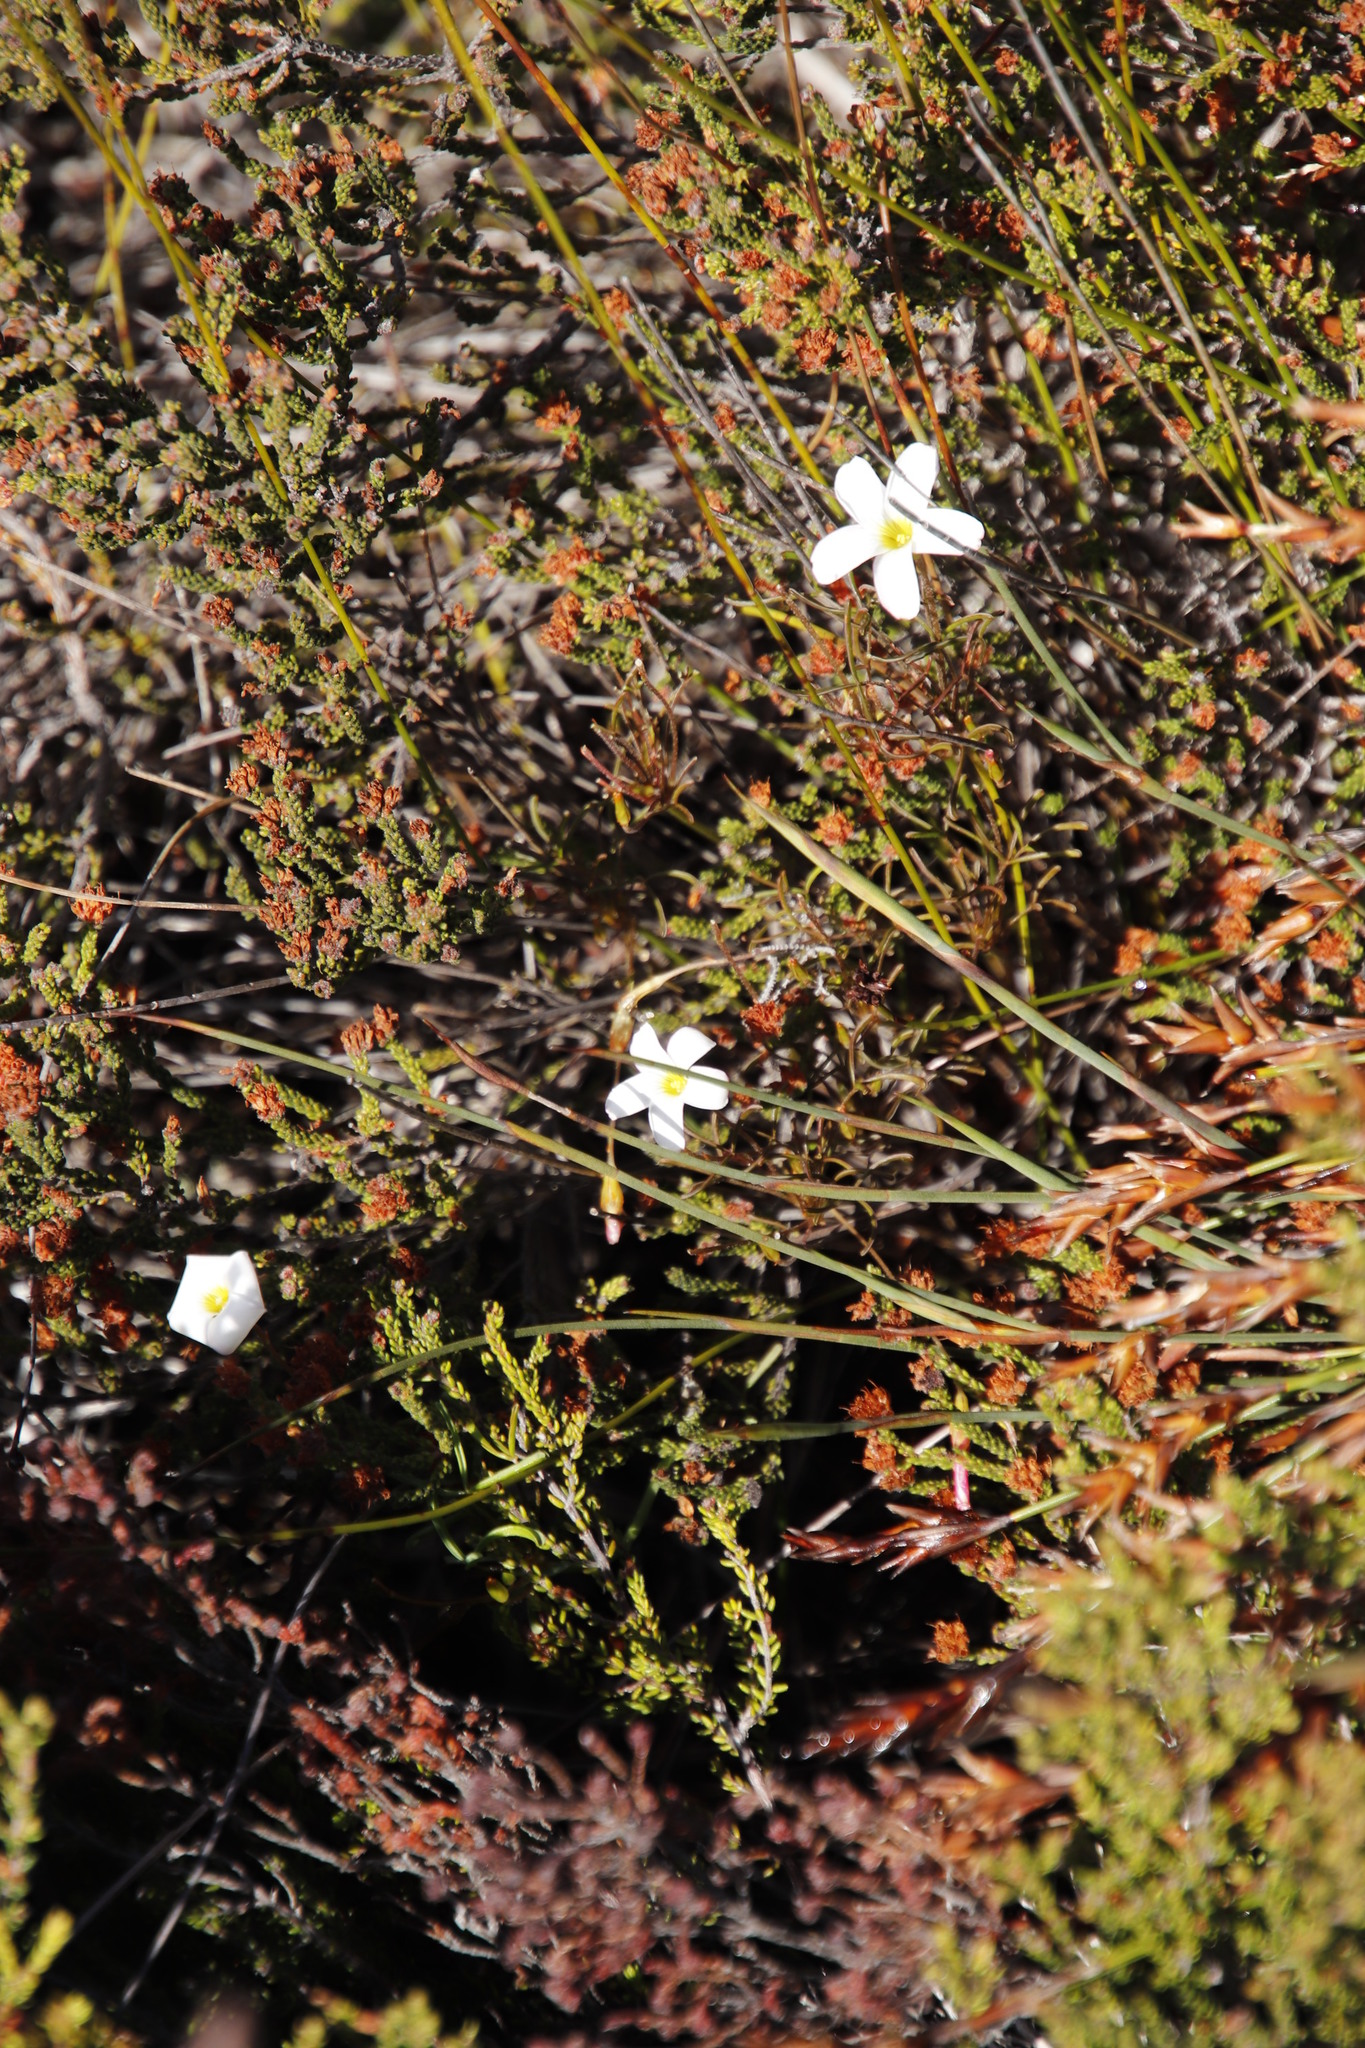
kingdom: Plantae
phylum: Tracheophyta
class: Magnoliopsida
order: Oxalidales
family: Oxalidaceae
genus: Oxalis
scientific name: Oxalis versicolor
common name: Peppermint rock oxalis
